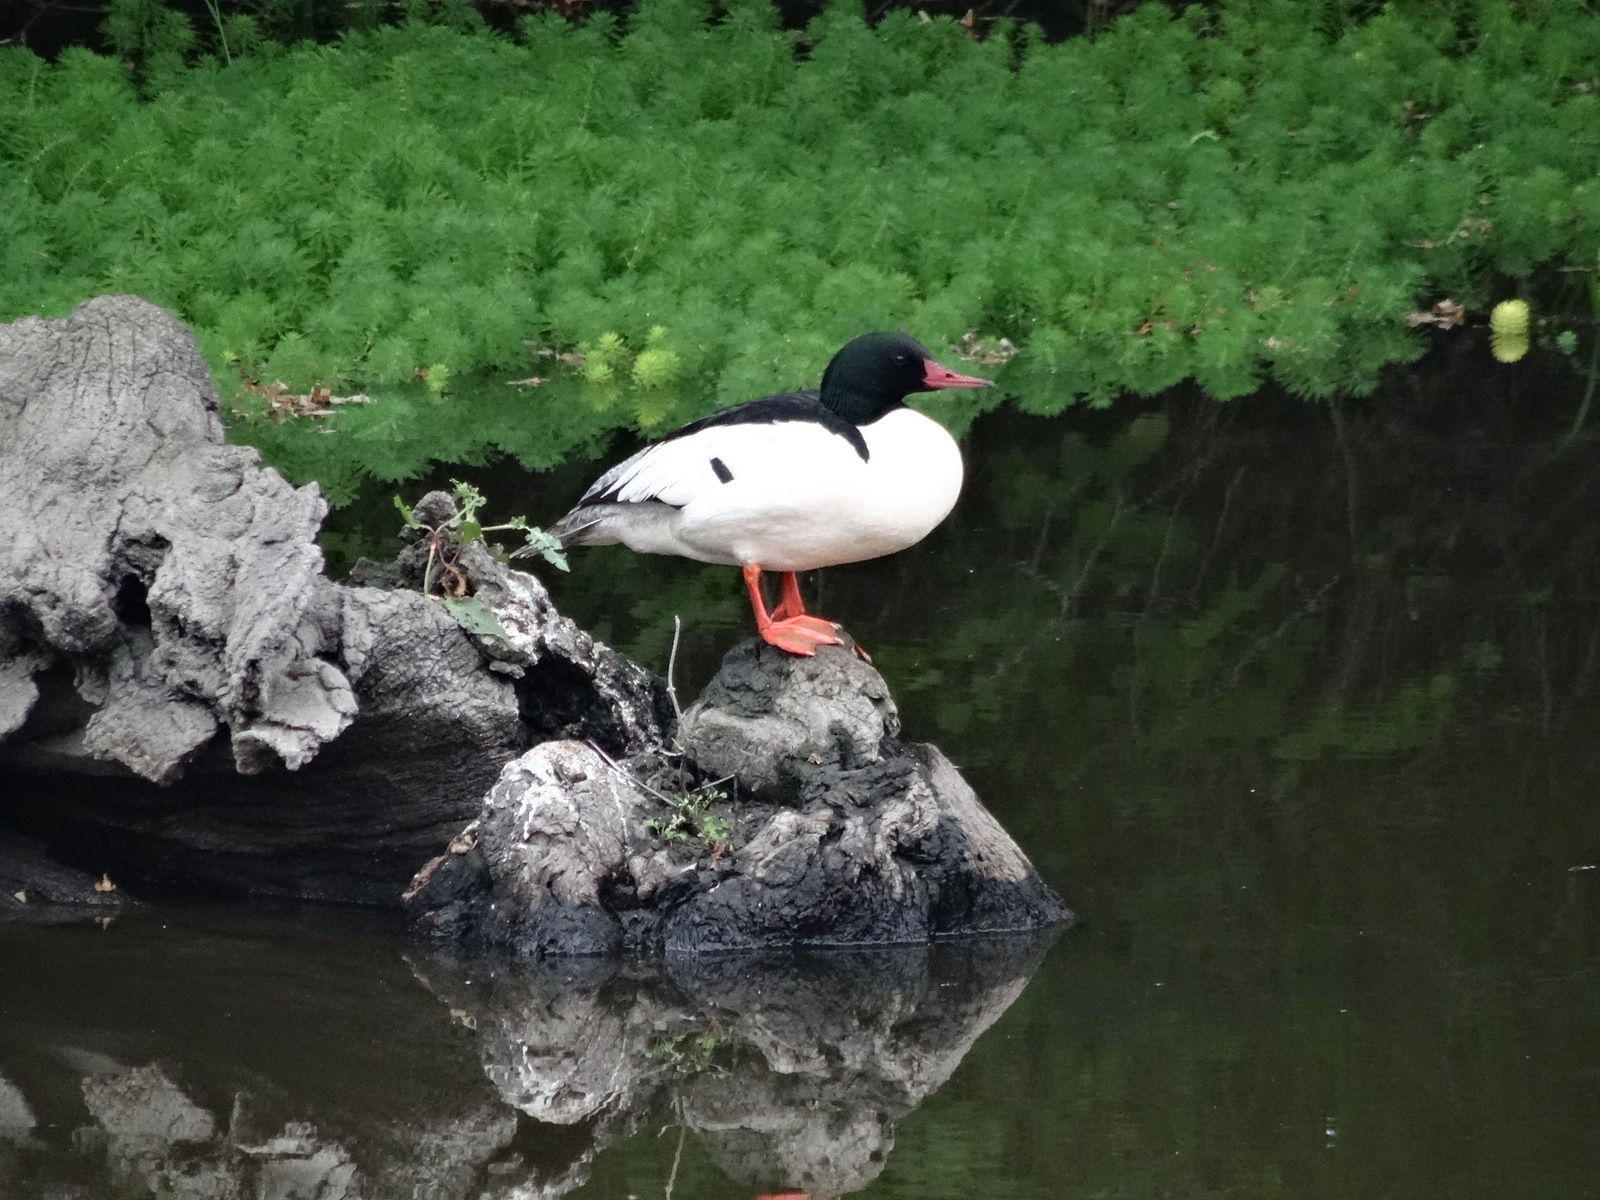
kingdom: Animalia
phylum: Chordata
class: Aves
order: Anseriformes
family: Anatidae
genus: Mergus
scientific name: Mergus merganser
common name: Common merganser
